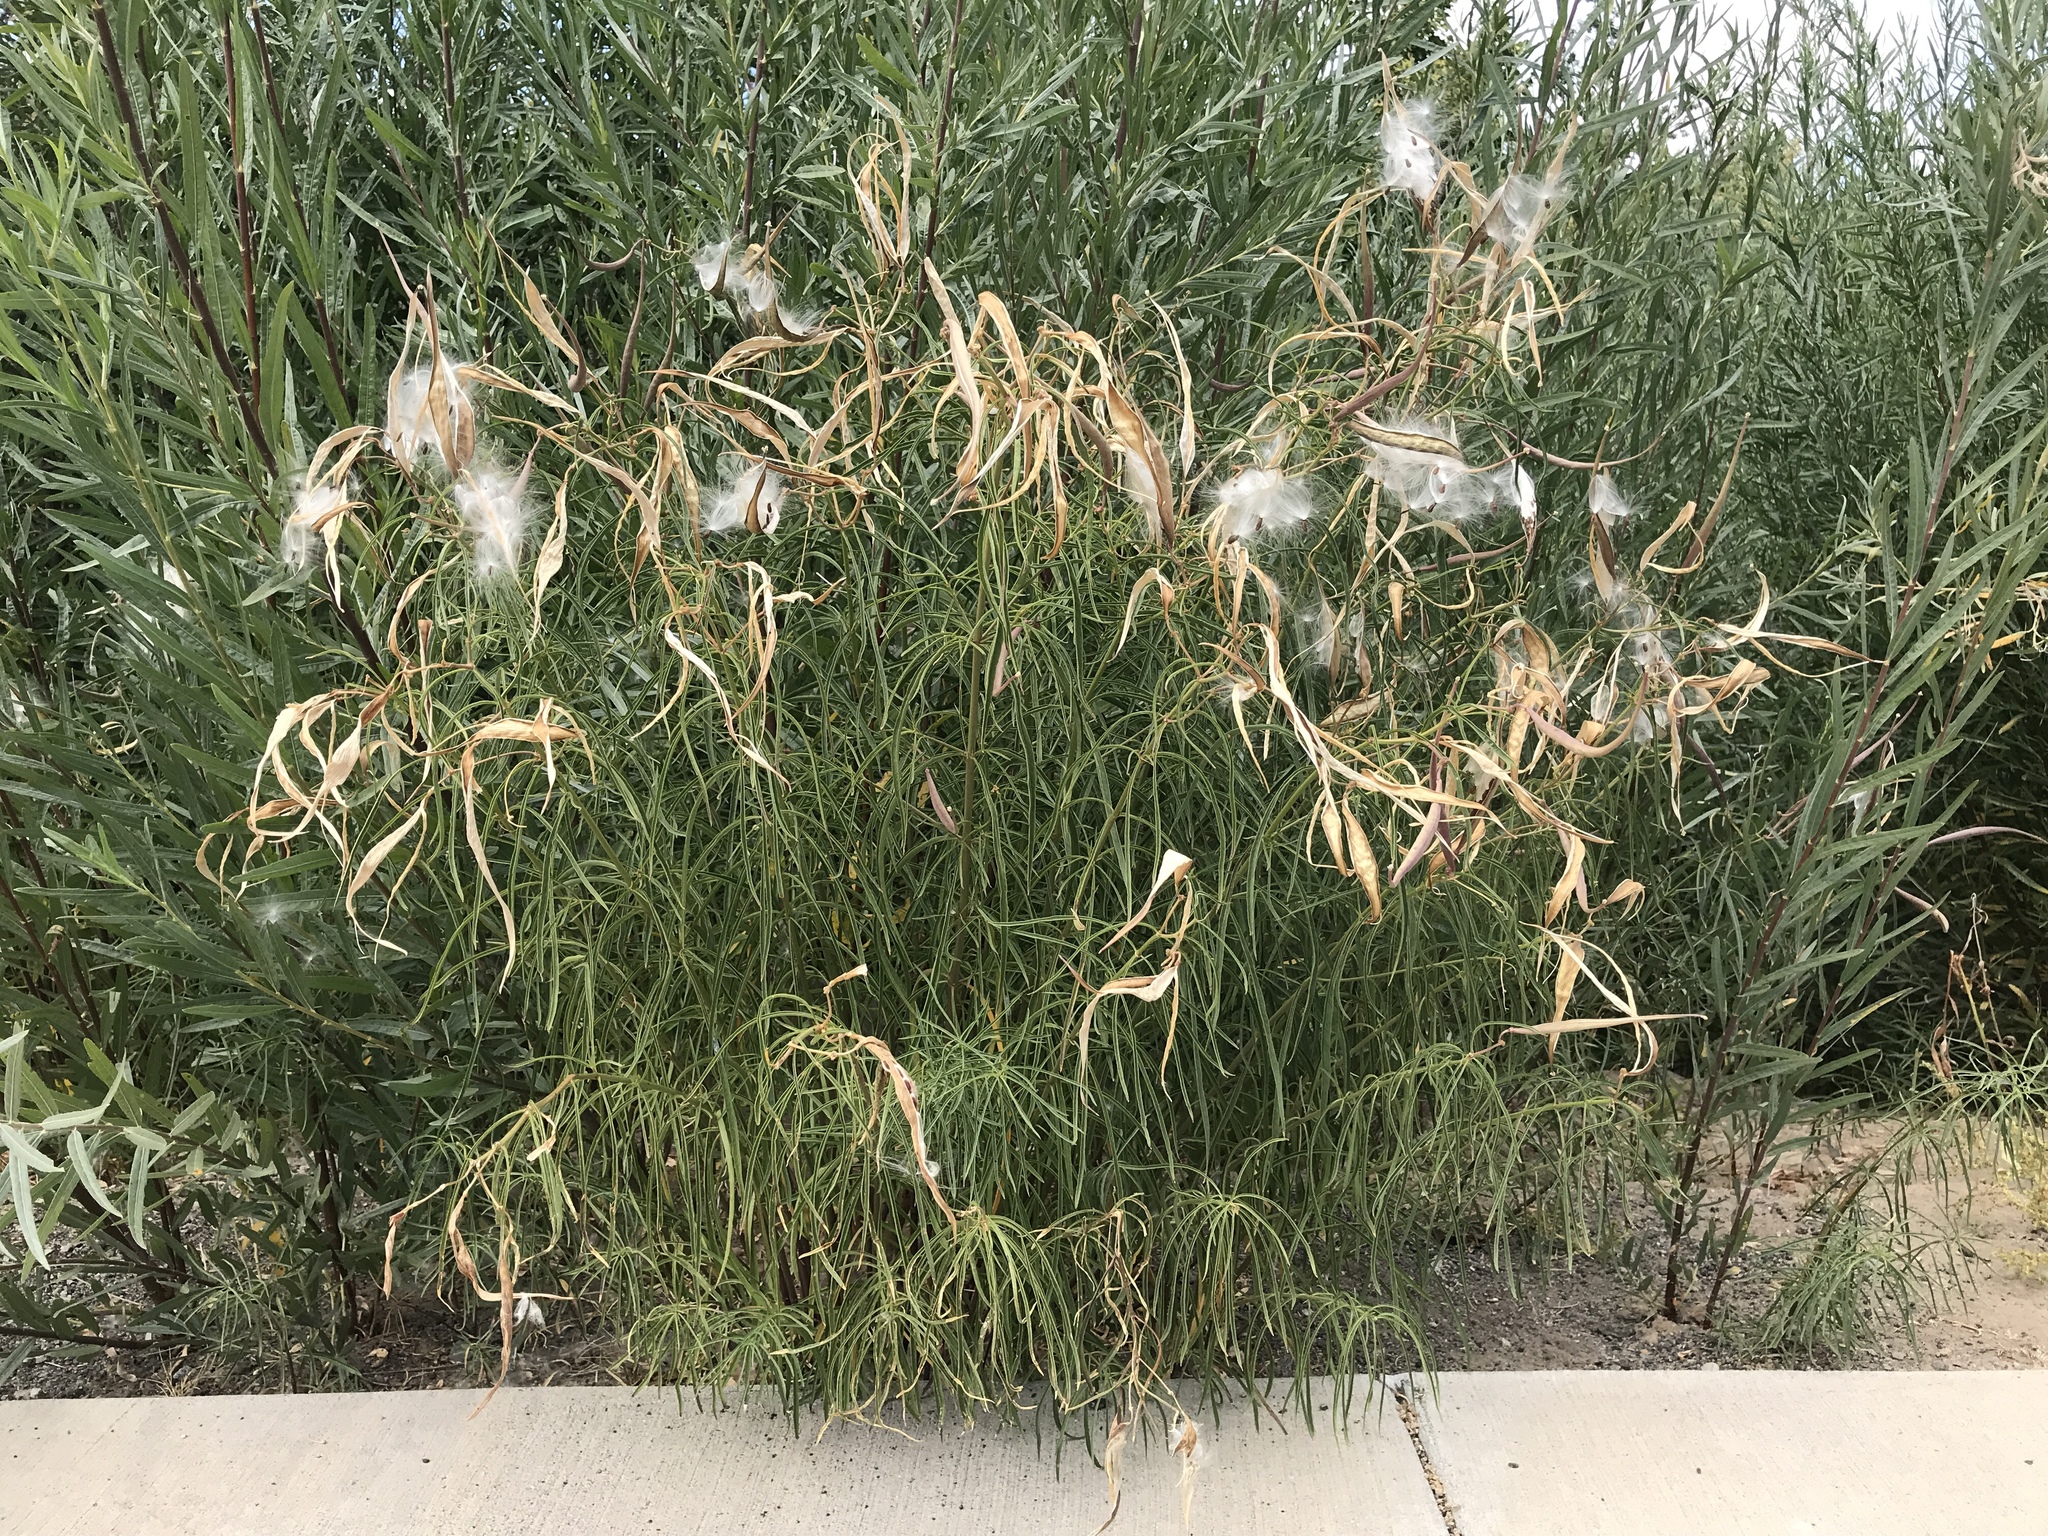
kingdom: Plantae
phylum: Tracheophyta
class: Magnoliopsida
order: Gentianales
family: Apocynaceae
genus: Asclepias
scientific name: Asclepias fascicularis
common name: Mexican milkweed
